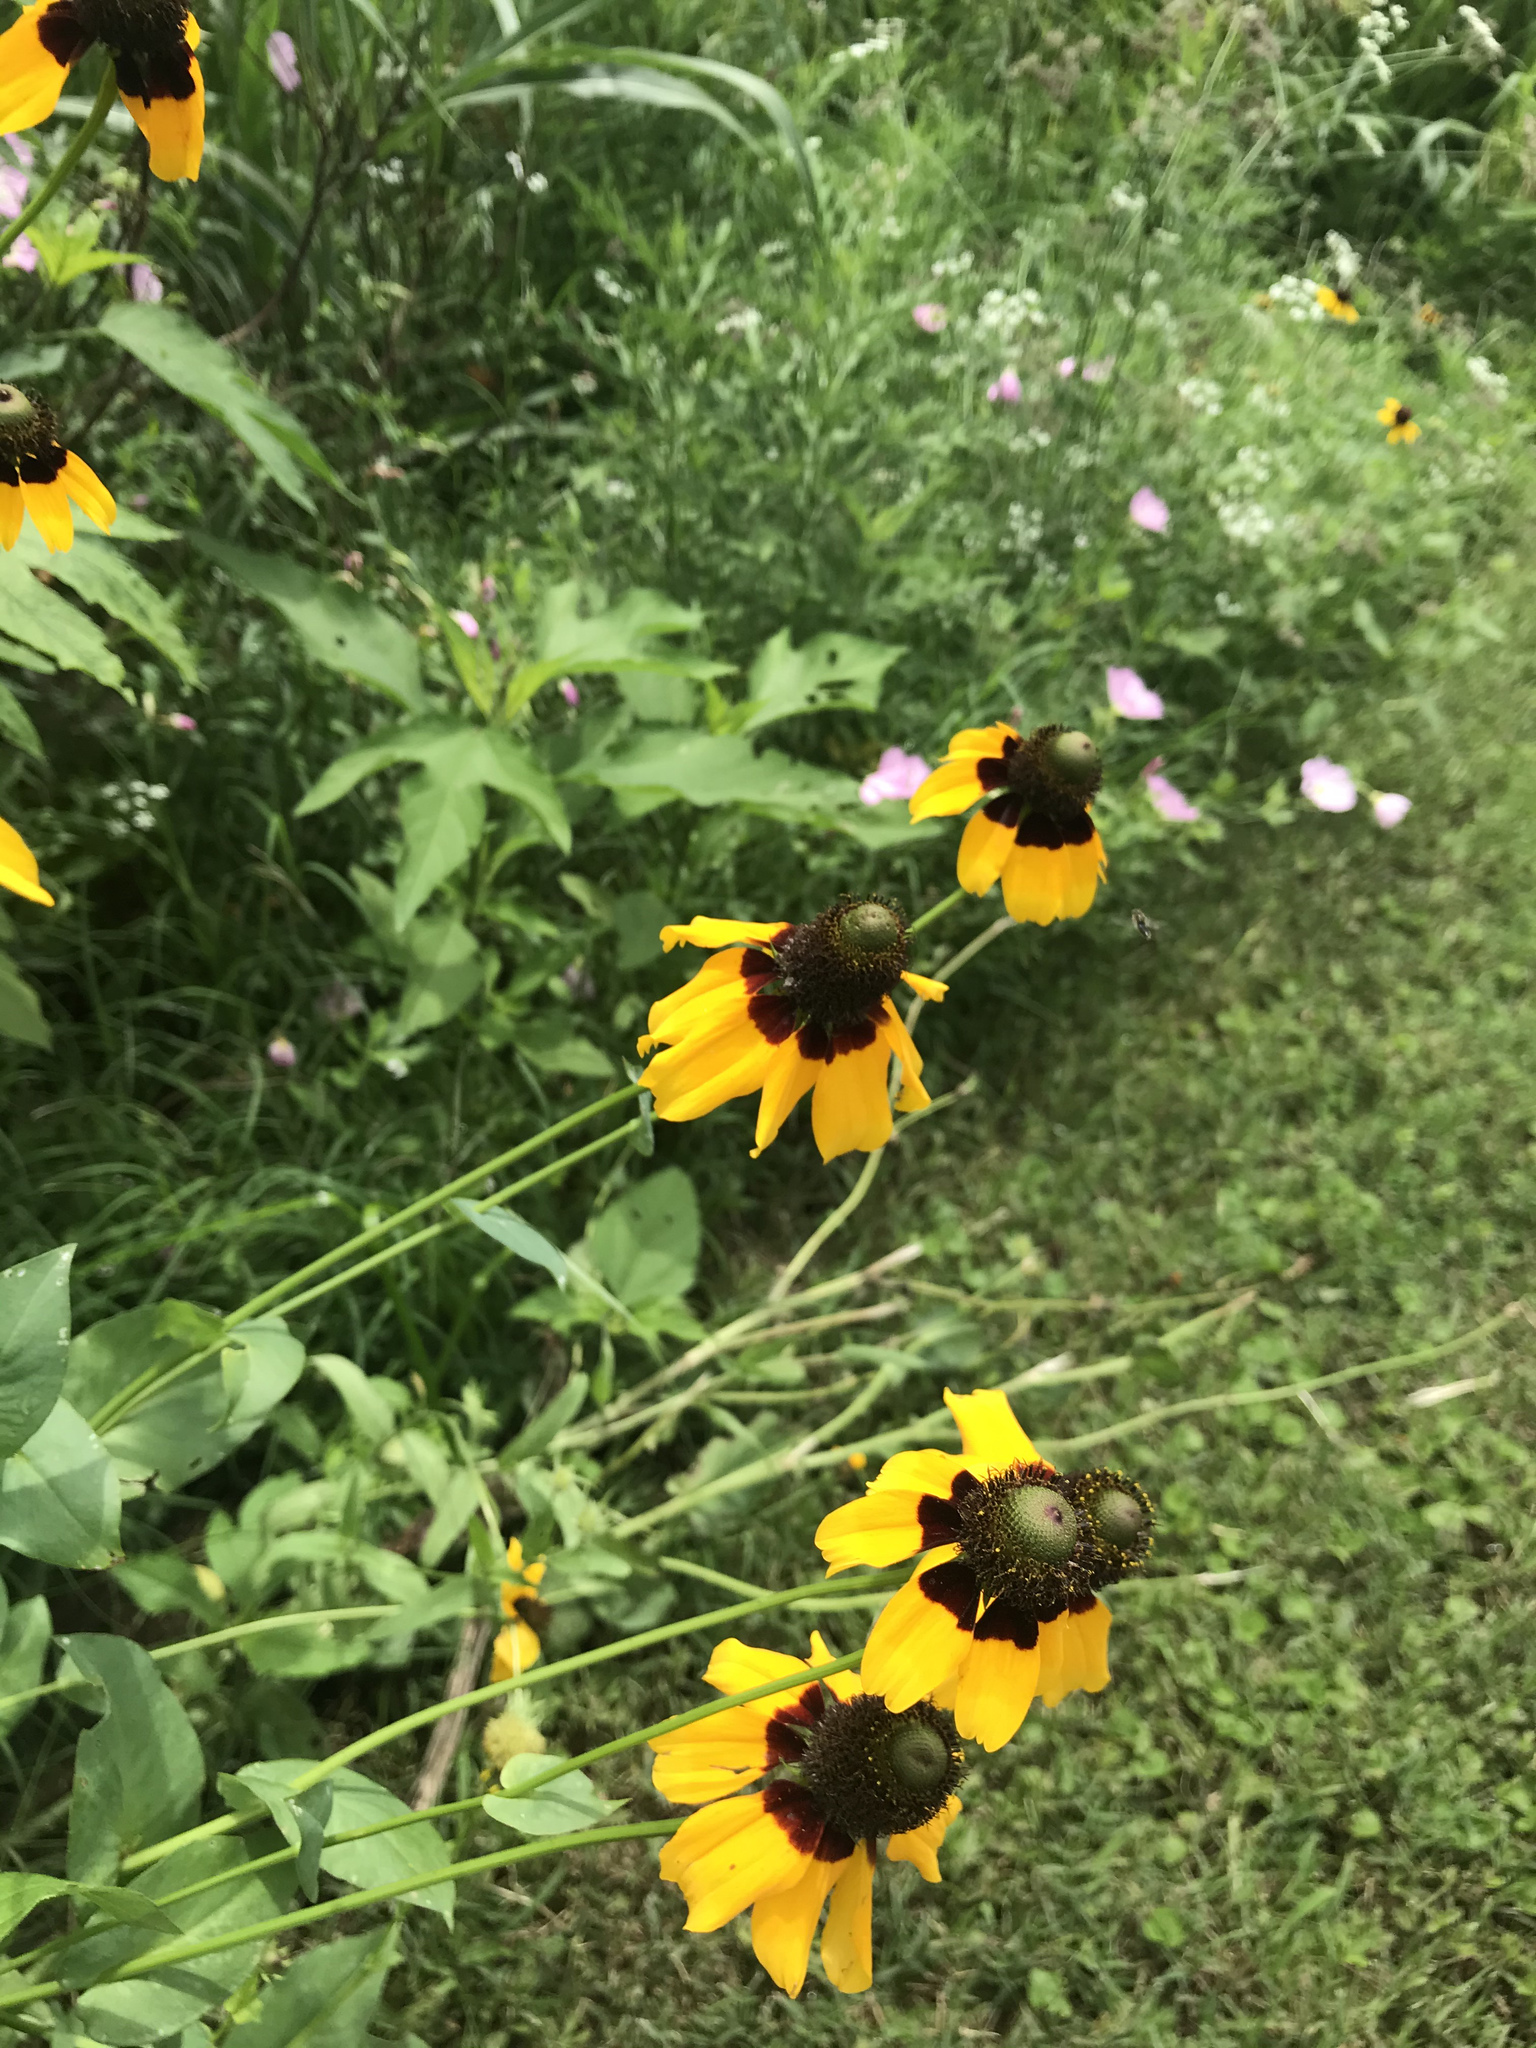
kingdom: Plantae
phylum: Tracheophyta
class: Magnoliopsida
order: Asterales
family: Asteraceae
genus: Rudbeckia
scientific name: Rudbeckia amplexicaulis
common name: Clasping-leaf coneflower
